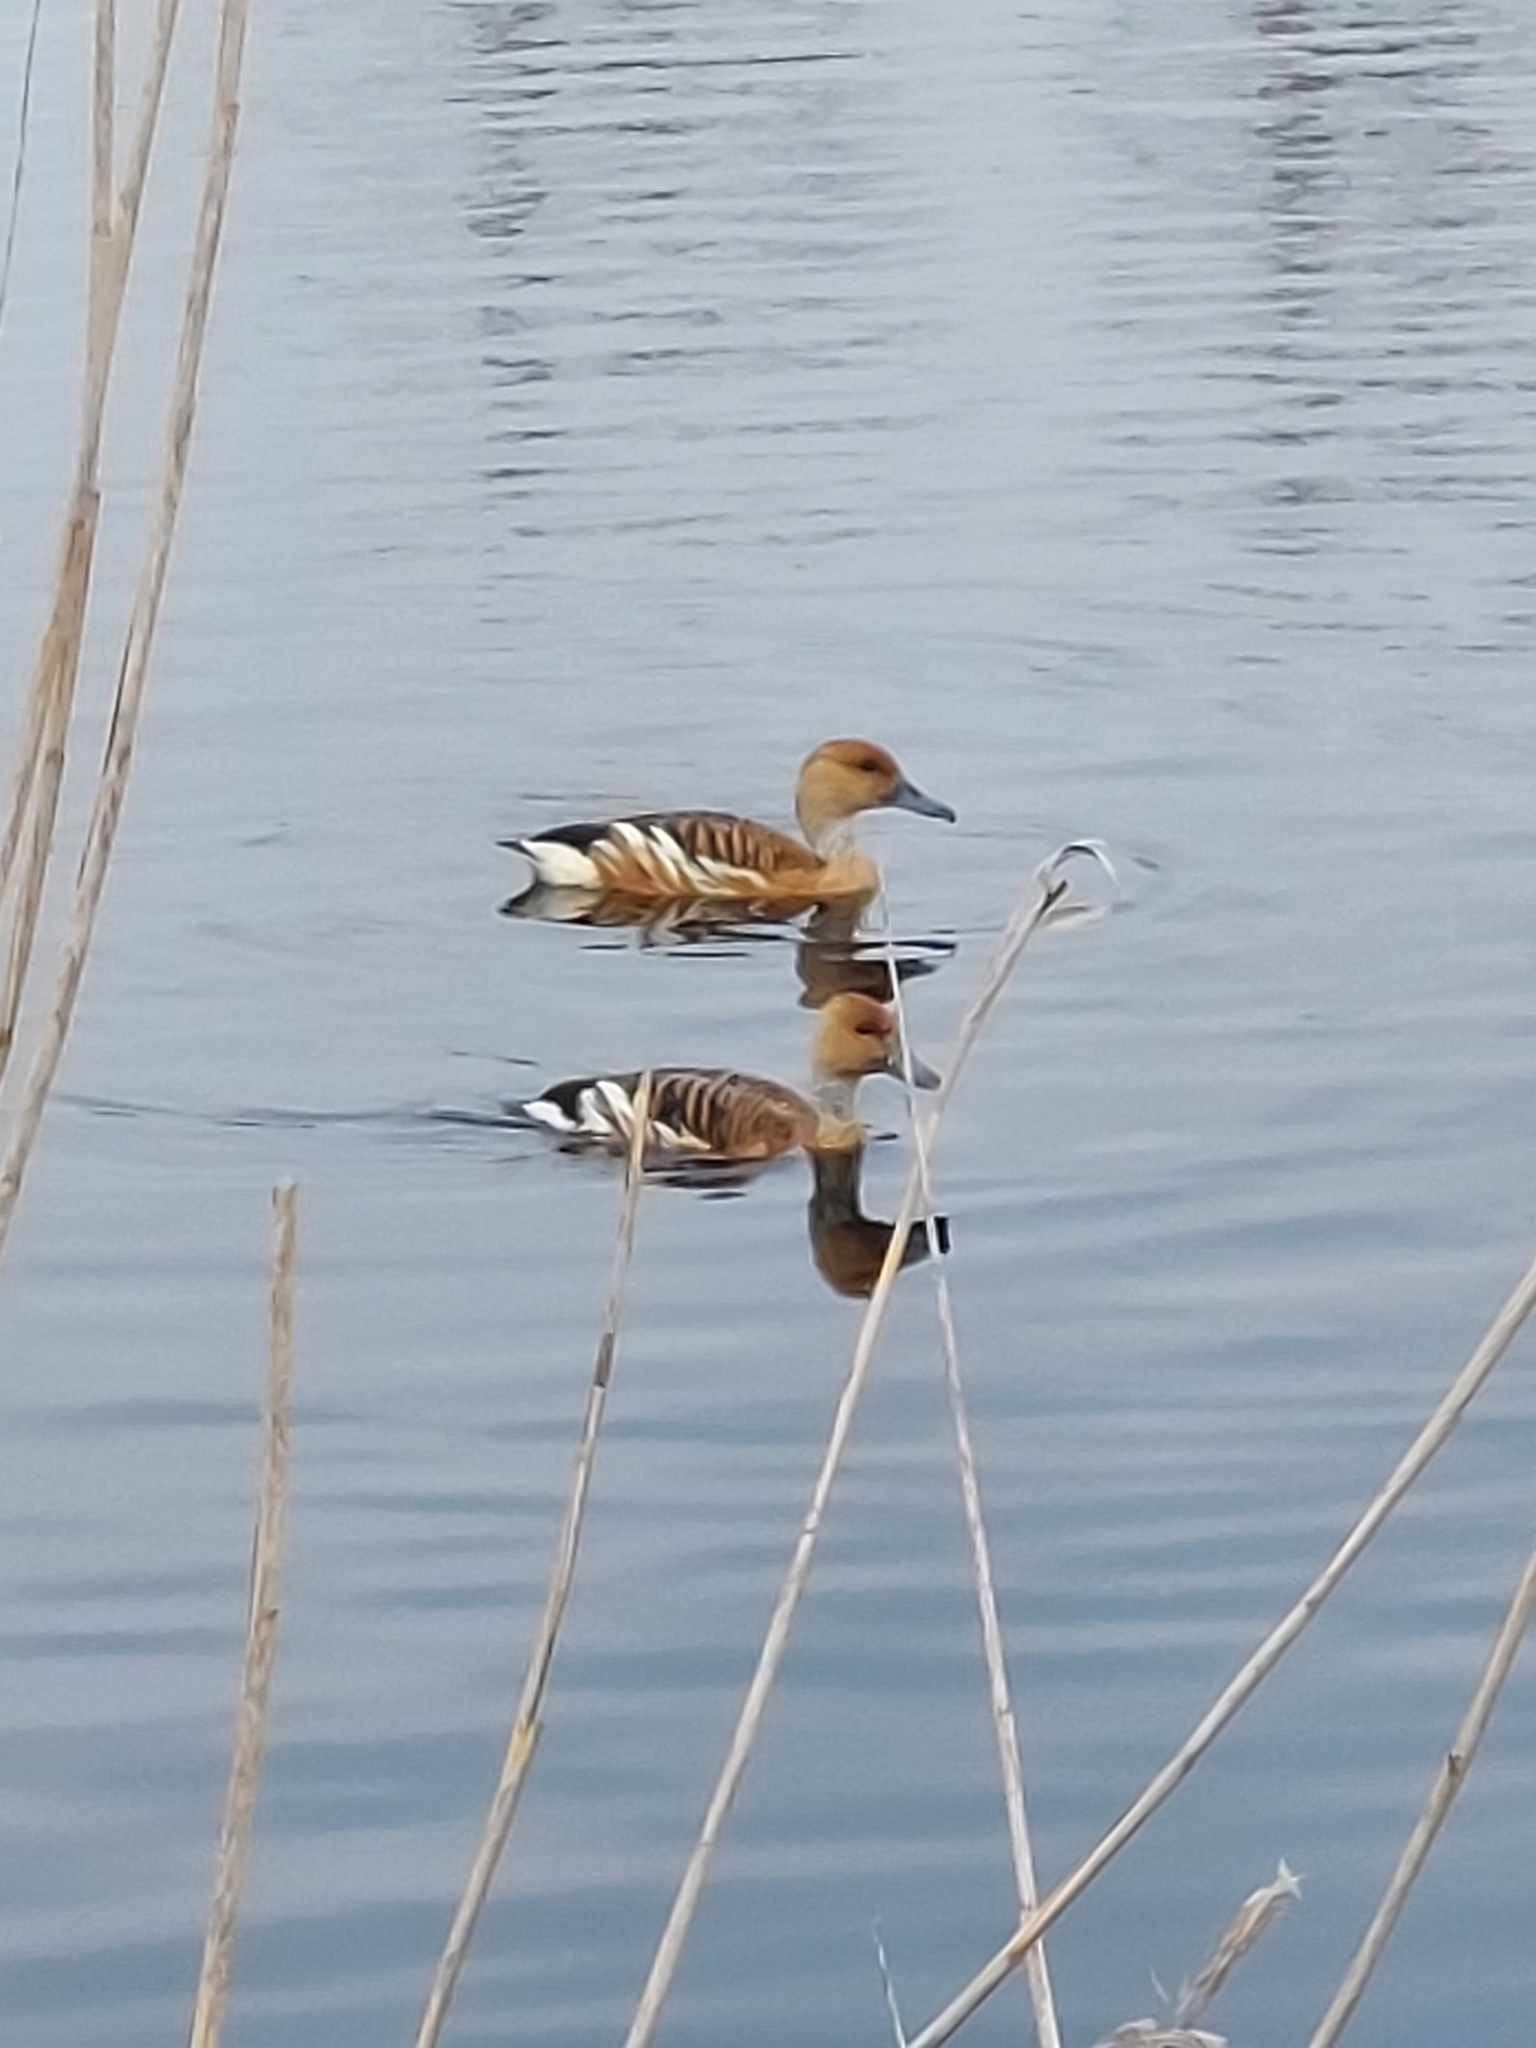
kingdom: Animalia
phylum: Chordata
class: Aves
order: Anseriformes
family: Anatidae
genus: Dendrocygna
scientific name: Dendrocygna bicolor
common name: Fulvous whistling duck
